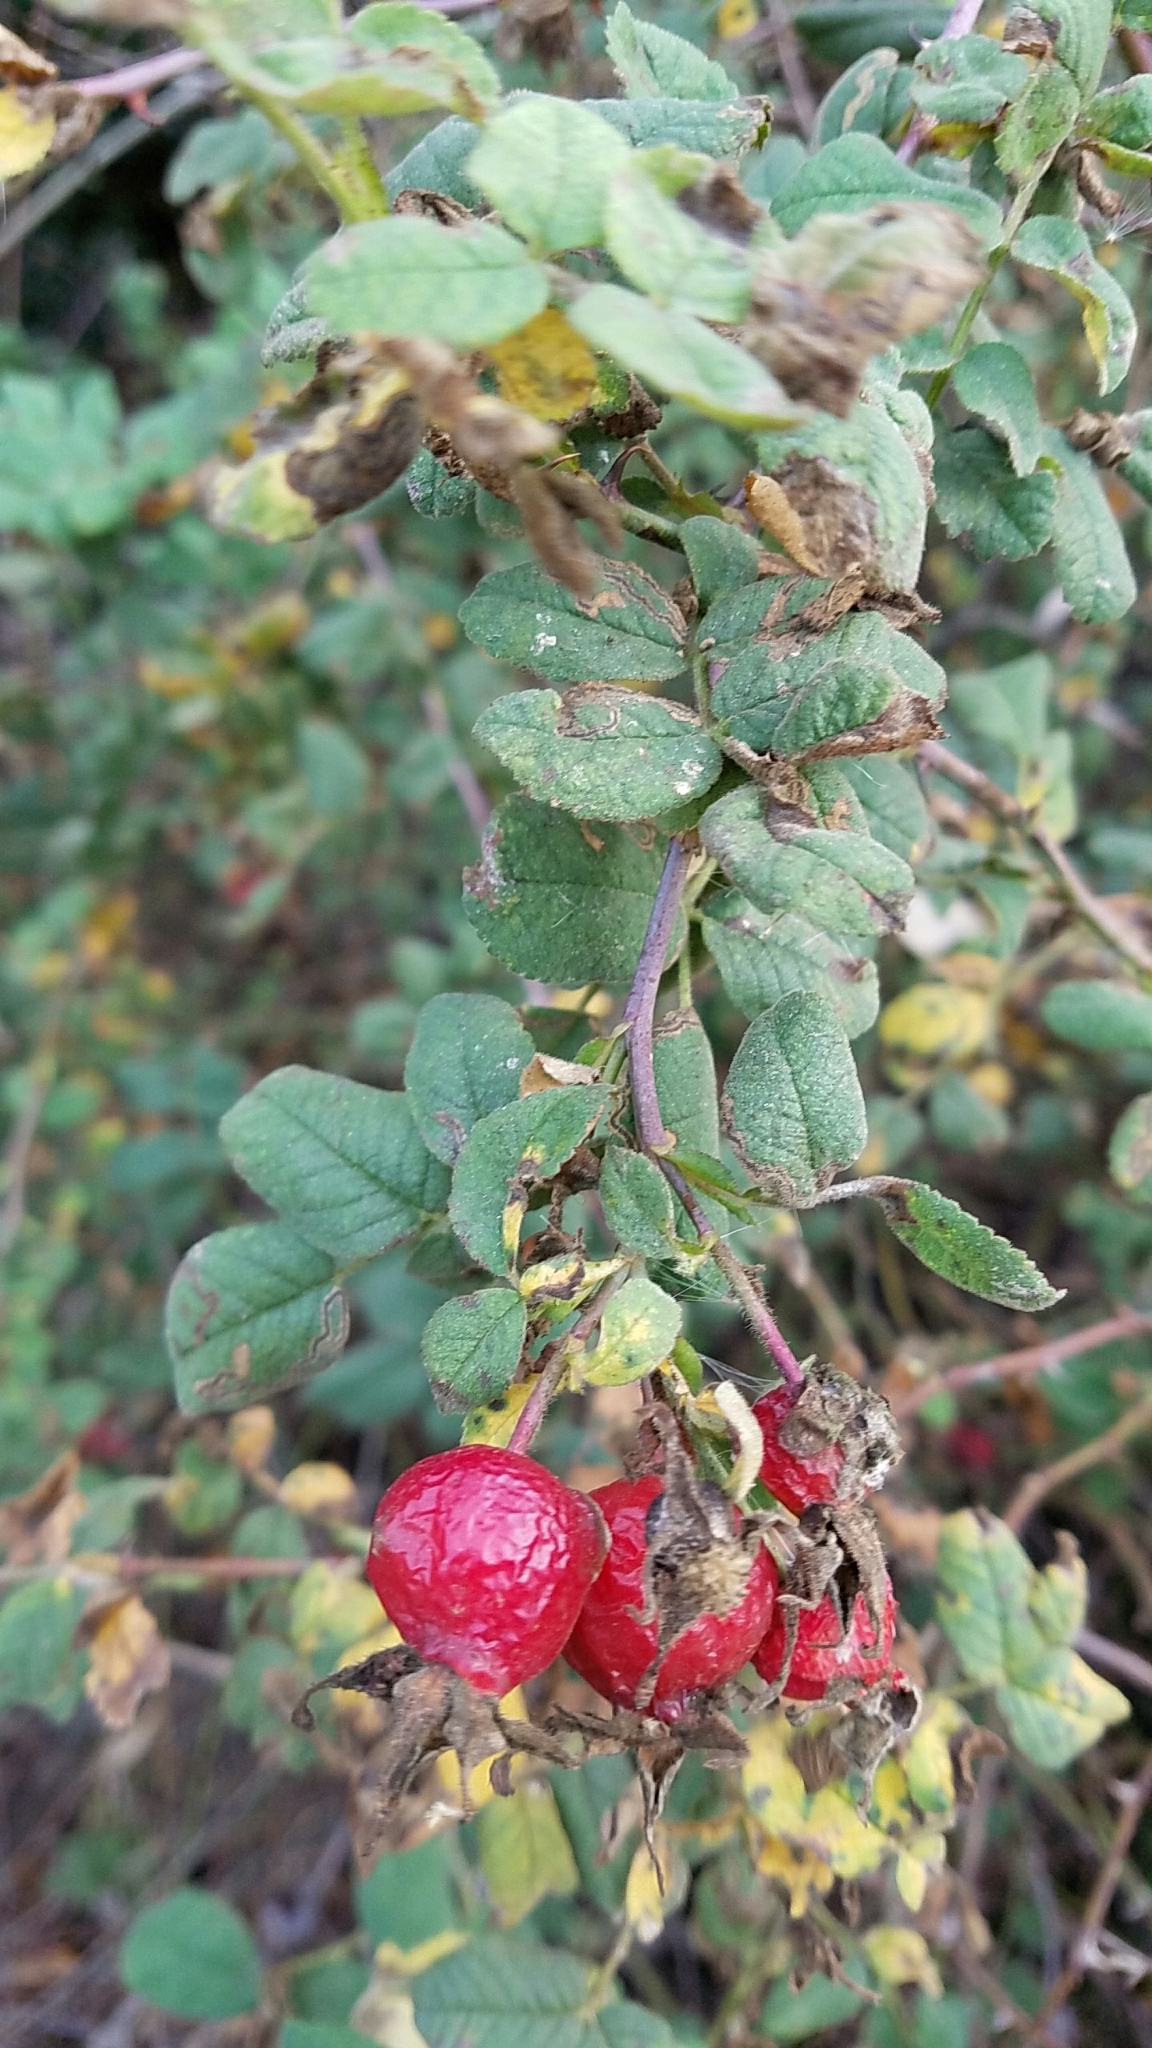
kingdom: Plantae
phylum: Tracheophyta
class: Magnoliopsida
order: Rosales
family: Rosaceae
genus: Rosa
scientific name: Rosa californica
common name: California rose
